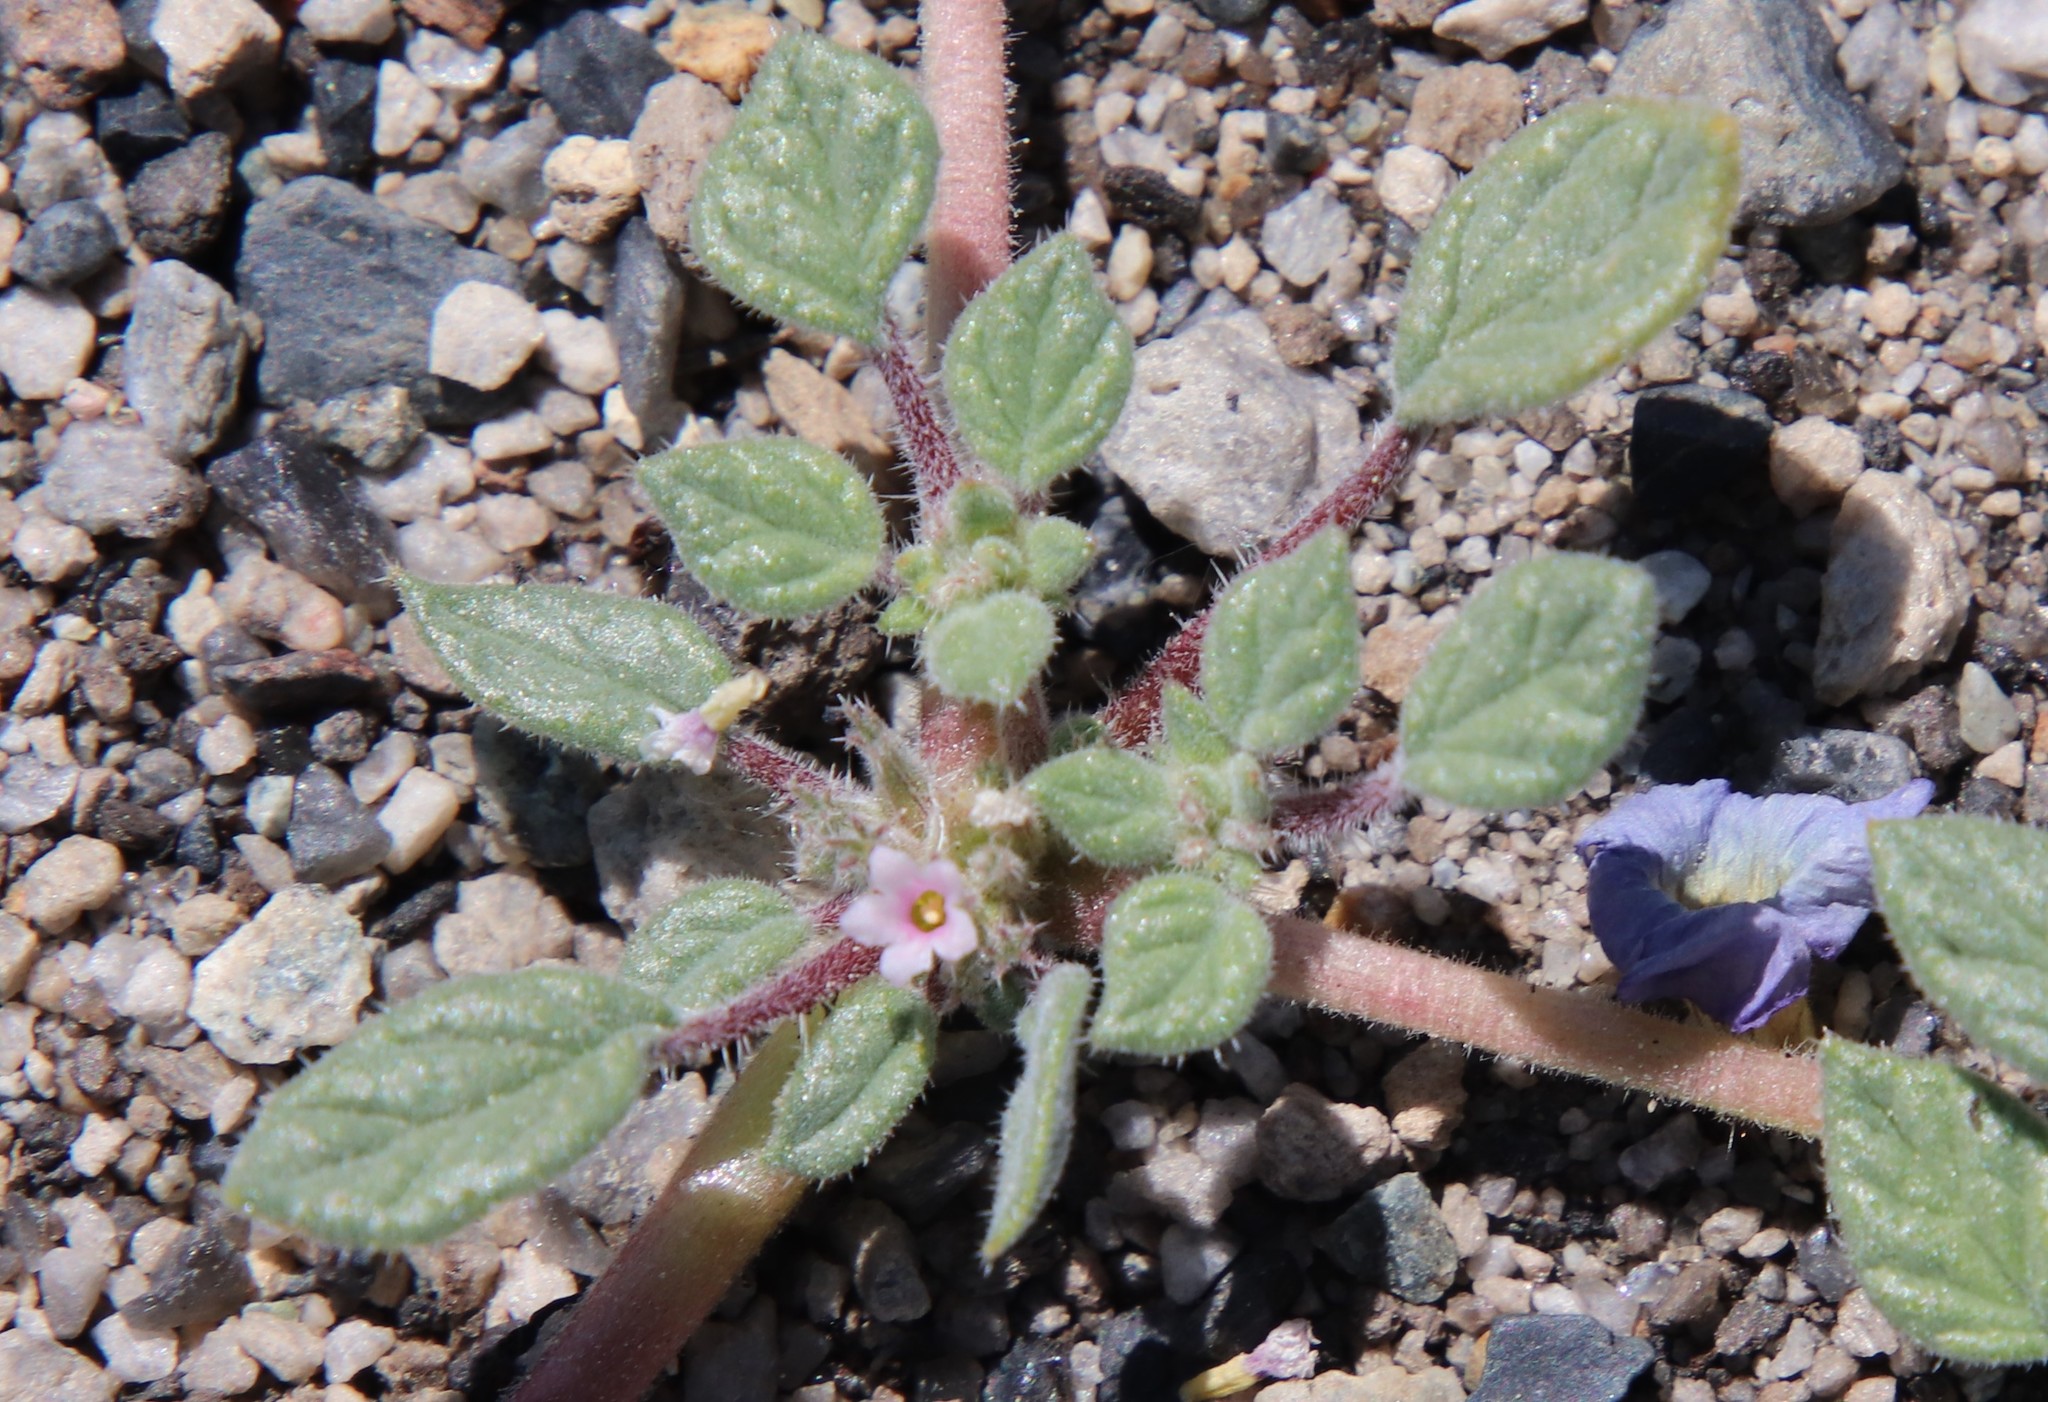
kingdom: Plantae
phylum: Tracheophyta
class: Magnoliopsida
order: Boraginales
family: Ehretiaceae
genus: Tiquilia
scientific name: Tiquilia nuttallii
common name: Rosette tiquilia
